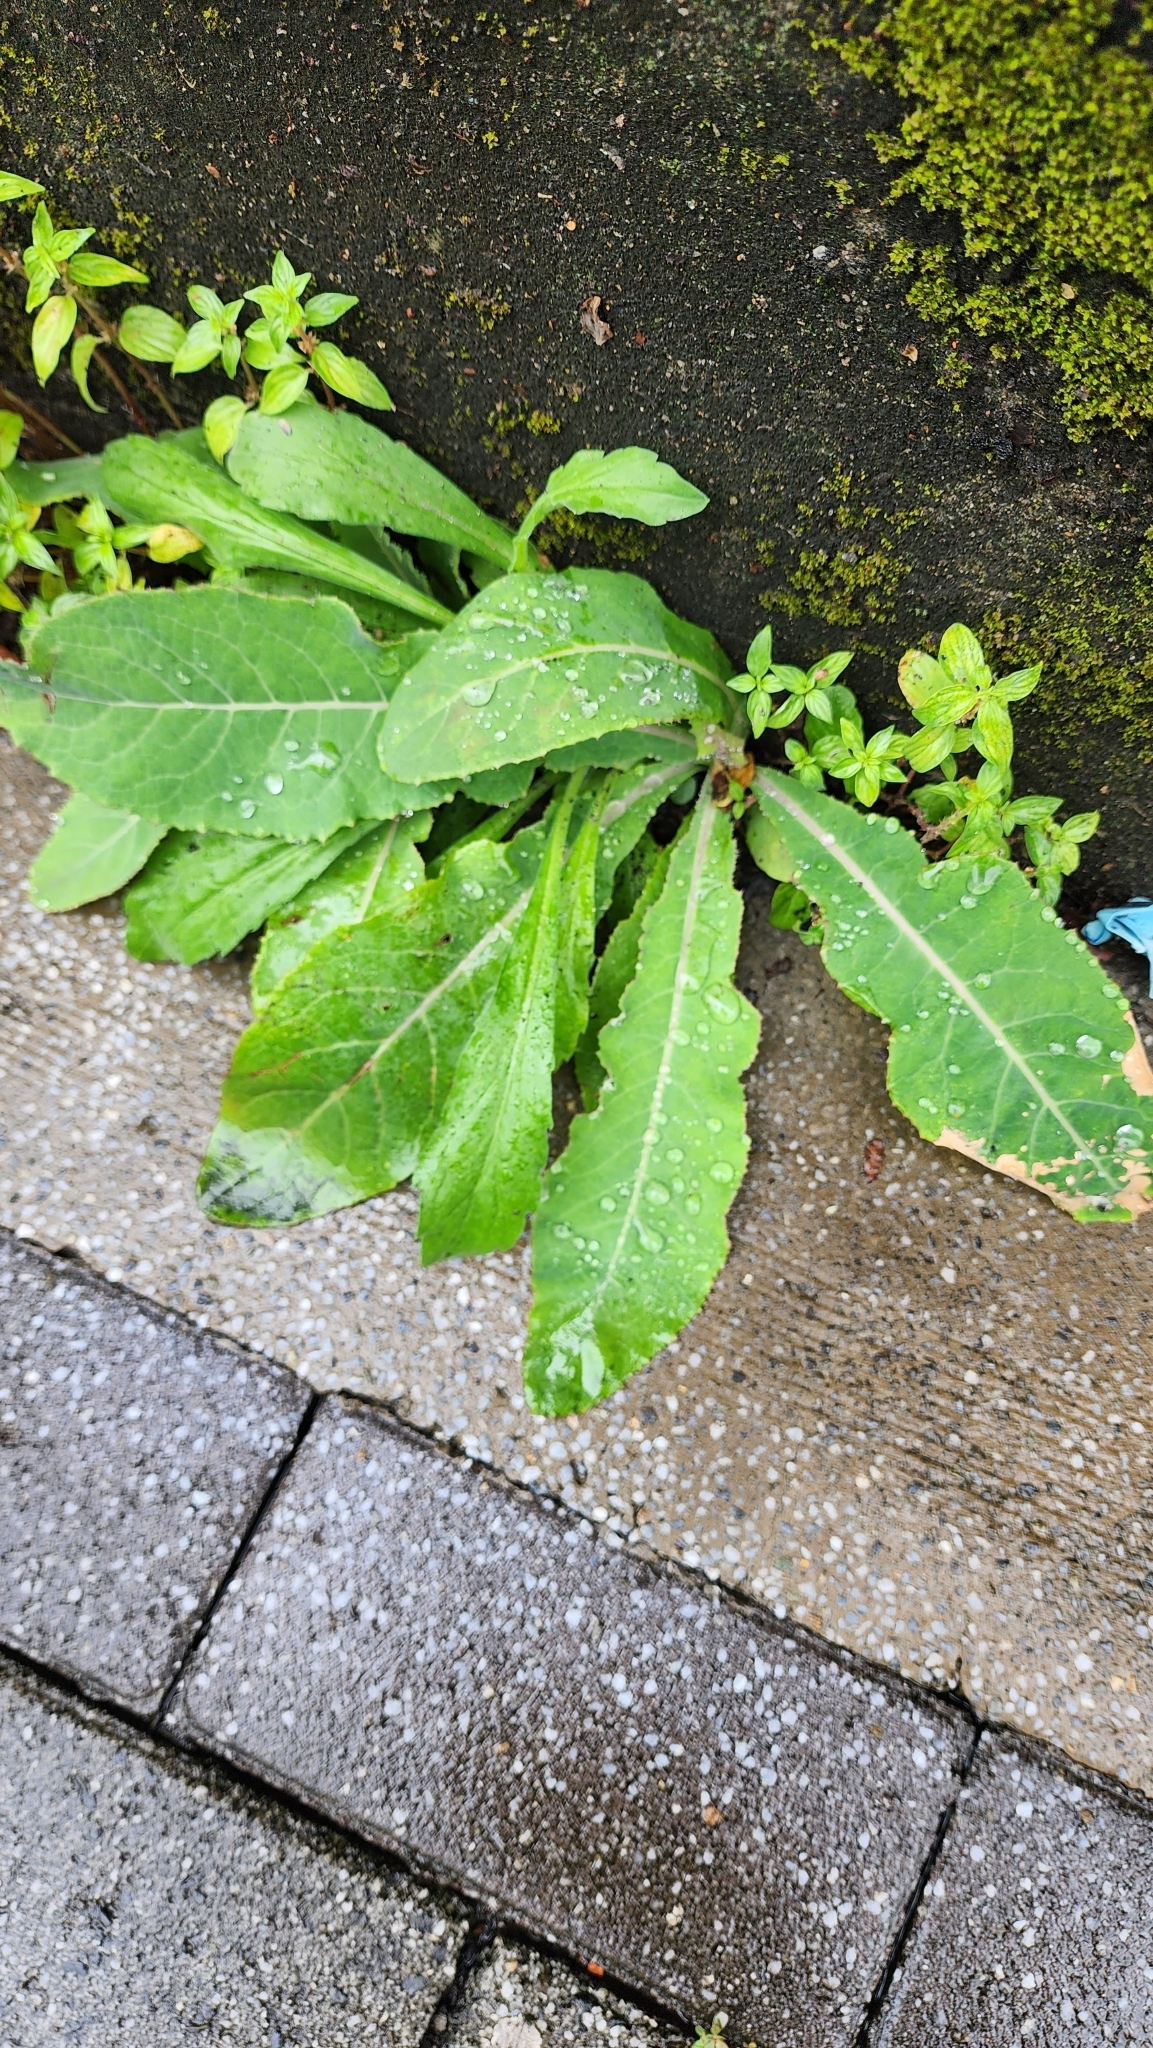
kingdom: Plantae
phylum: Tracheophyta
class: Magnoliopsida
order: Asterales
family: Asteraceae
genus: Sonchus
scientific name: Sonchus arvensis
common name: Perennial sow-thistle
